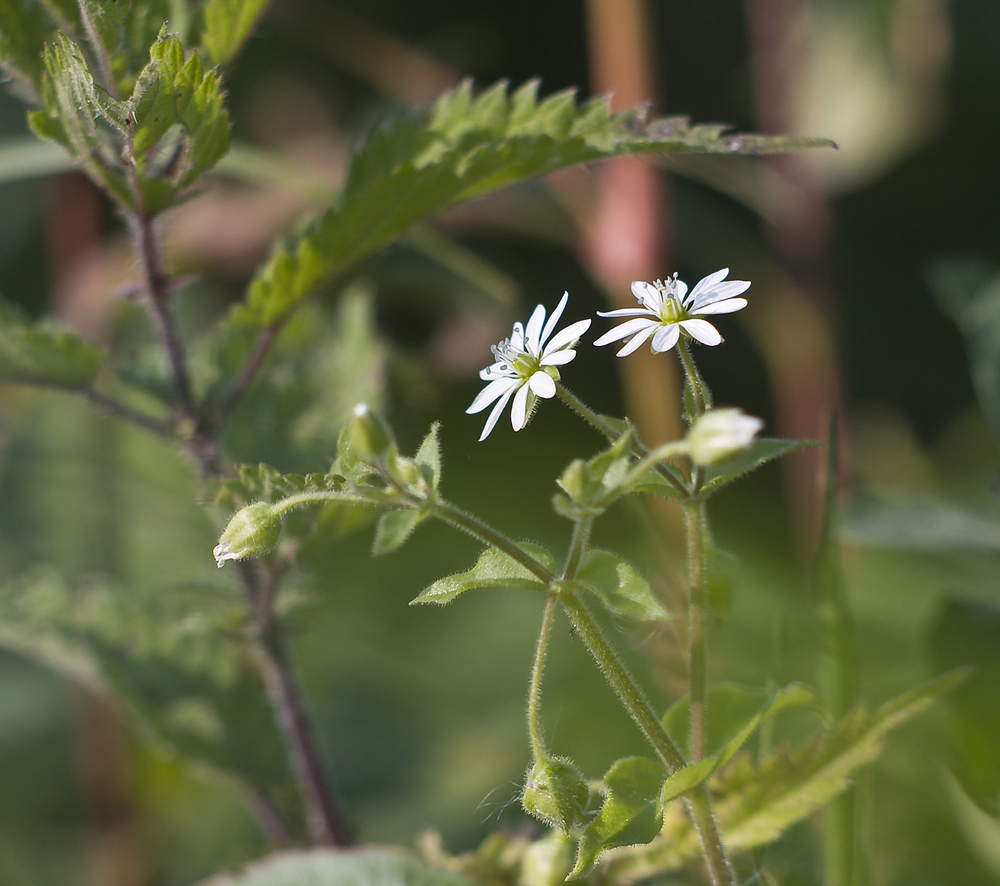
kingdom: Plantae
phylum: Tracheophyta
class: Magnoliopsida
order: Caryophyllales
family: Caryophyllaceae
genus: Stellaria
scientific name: Stellaria aquatica
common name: Water chickweed
